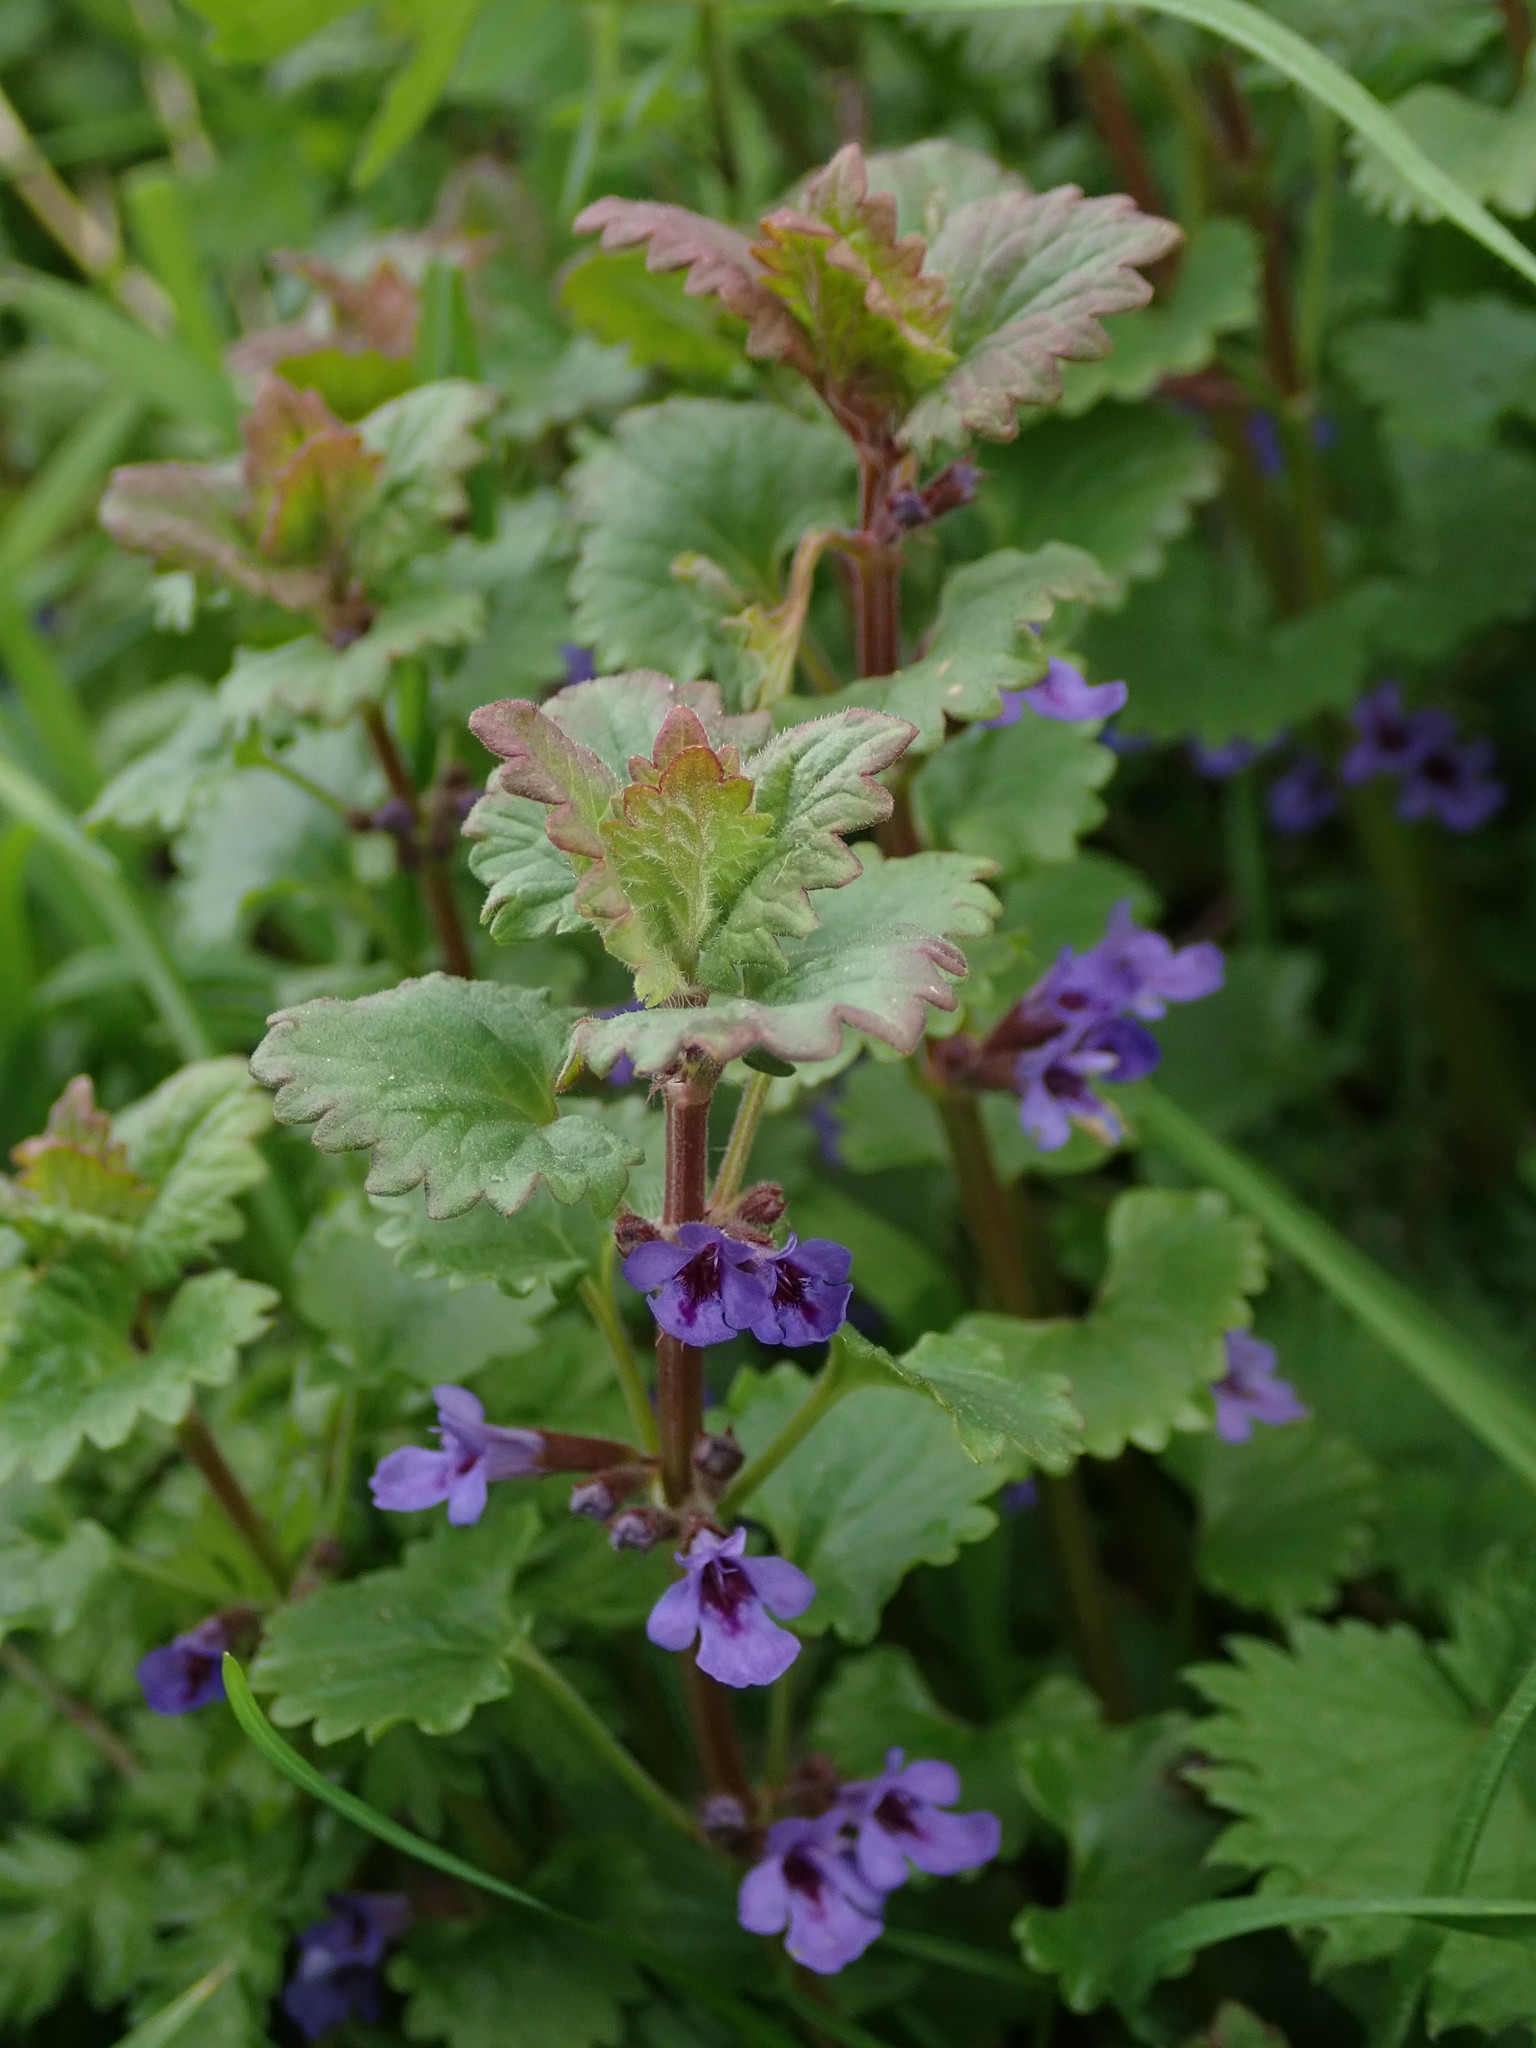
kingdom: Plantae
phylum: Tracheophyta
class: Magnoliopsida
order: Lamiales
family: Lamiaceae
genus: Glechoma
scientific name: Glechoma hederacea
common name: Ground ivy
